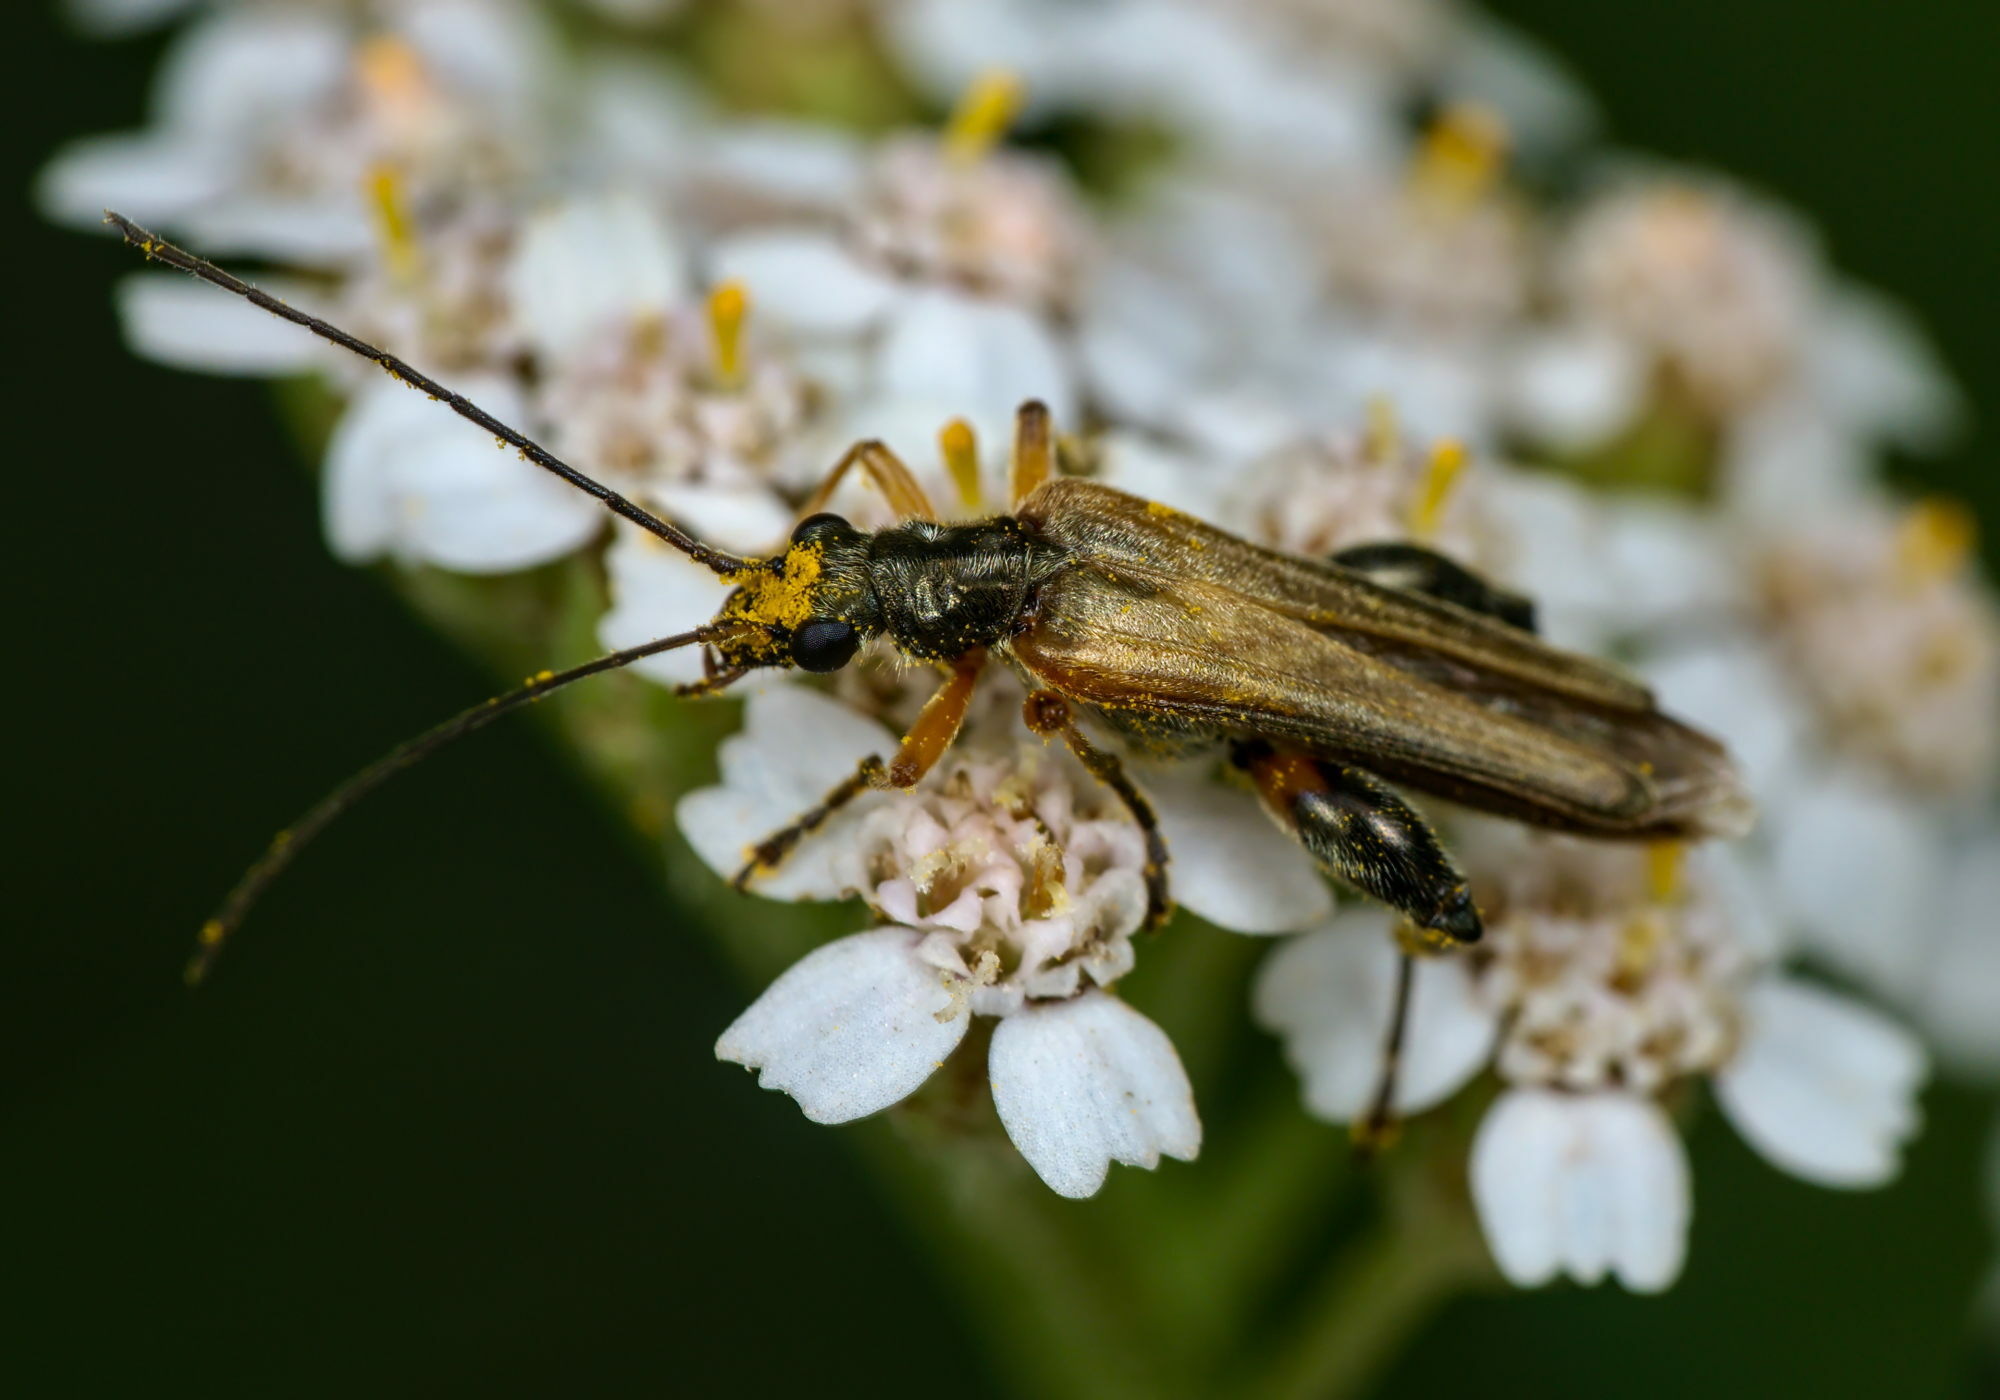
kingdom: Animalia
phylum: Arthropoda
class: Insecta
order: Coleoptera
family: Oedemeridae
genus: Oedemera
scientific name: Oedemera podagrariae
